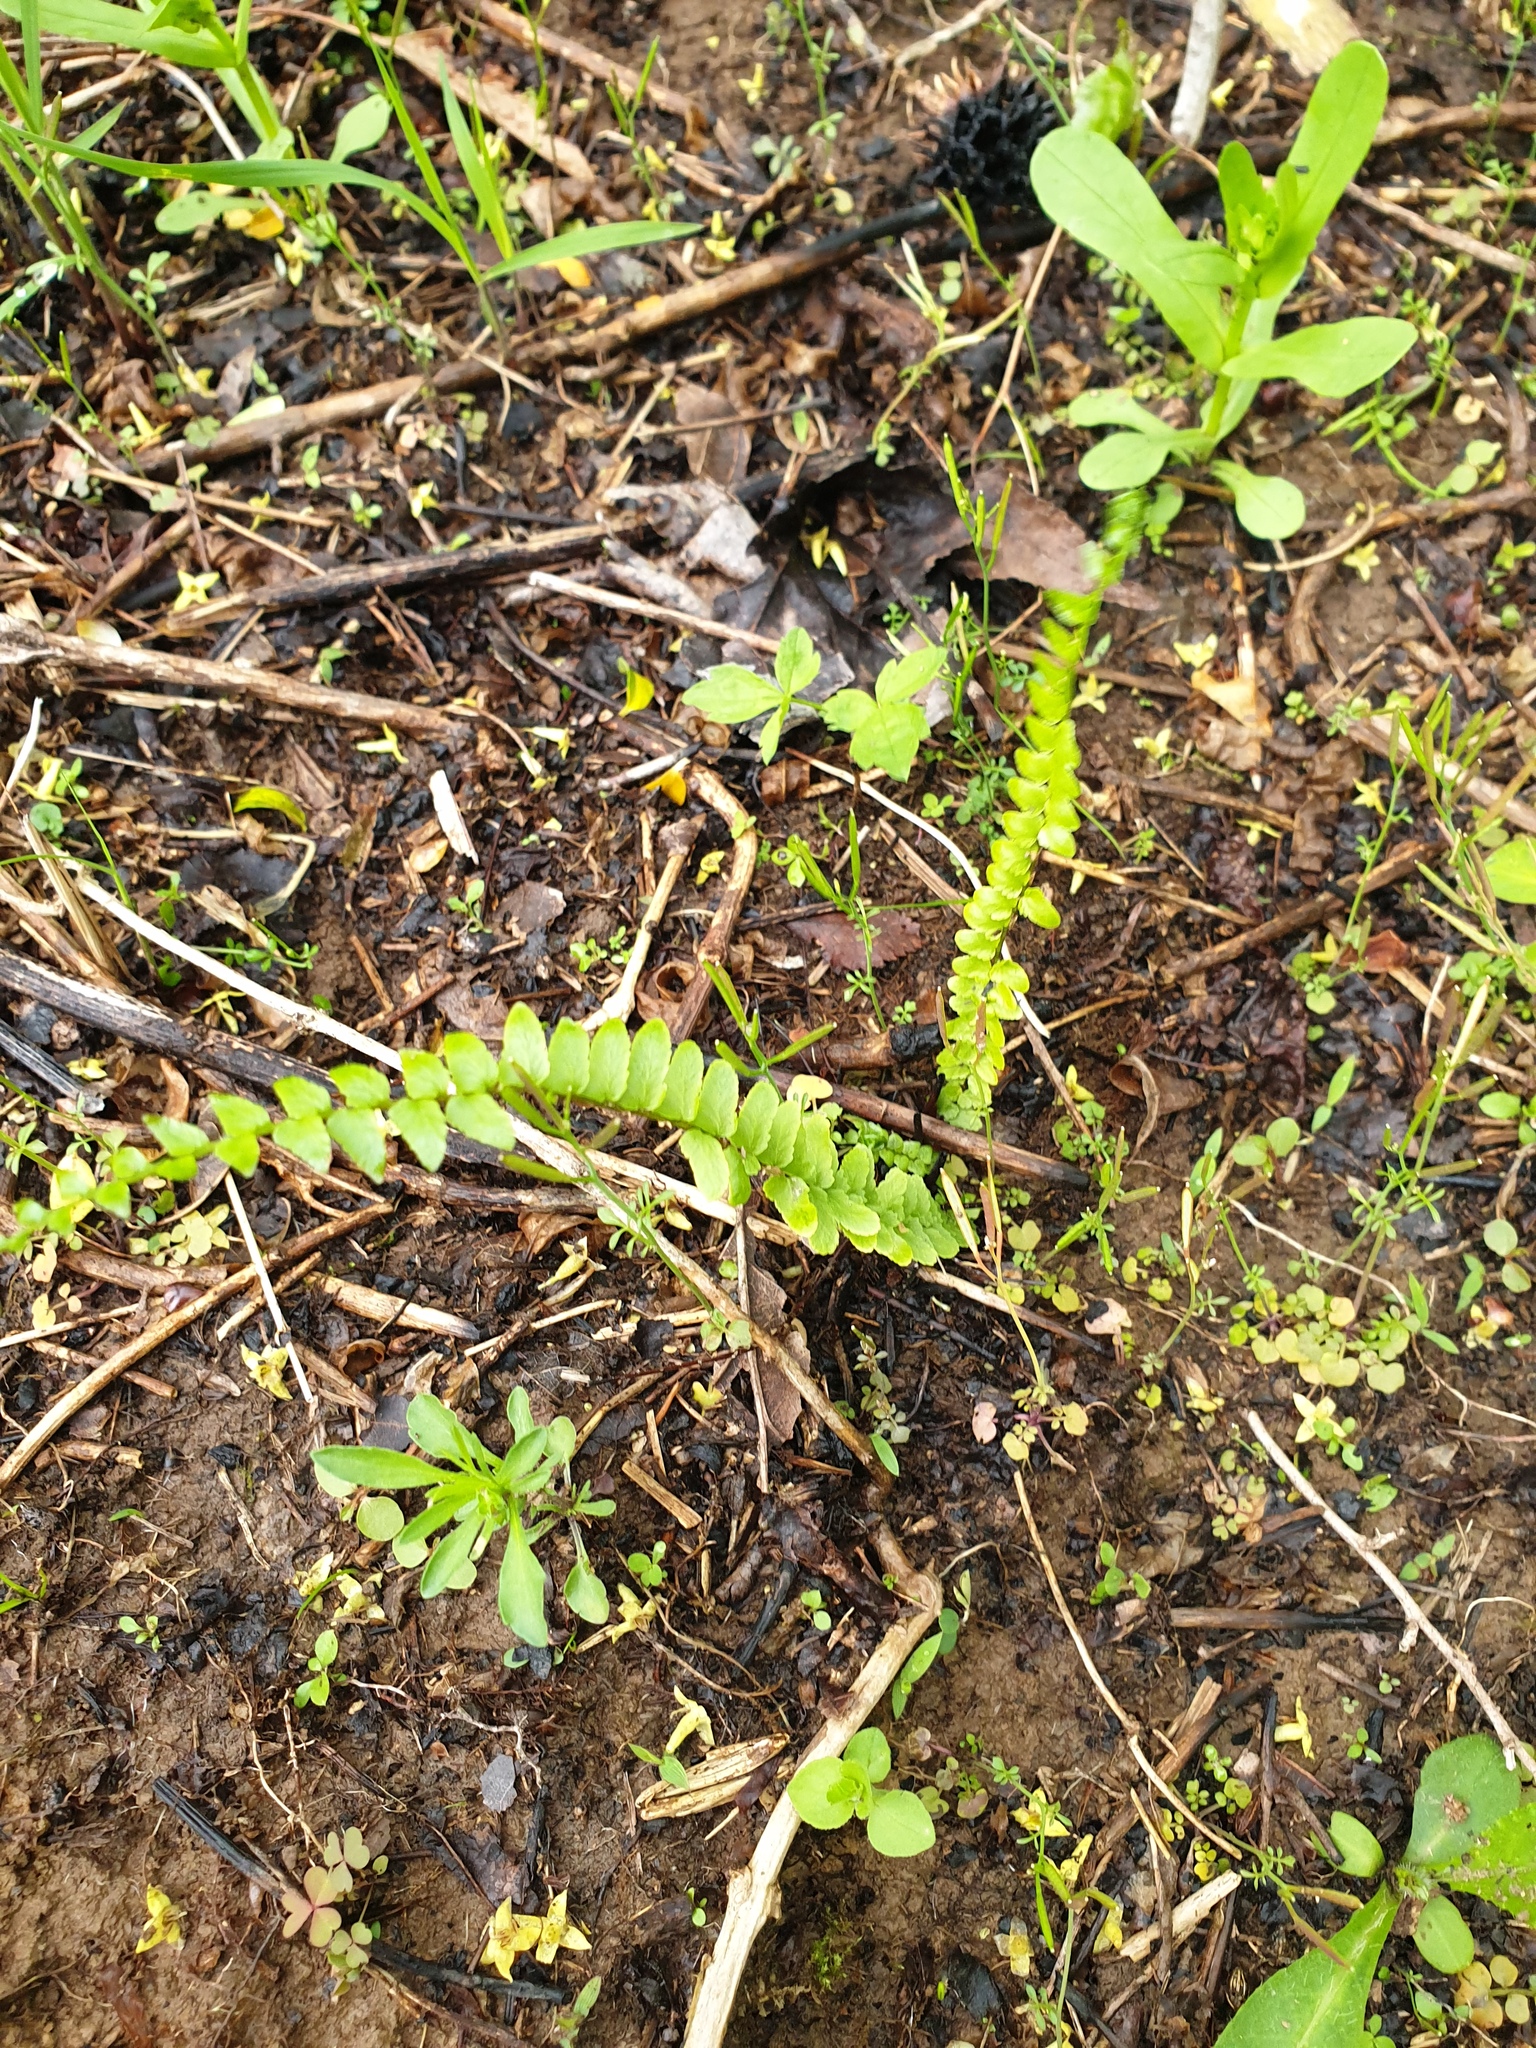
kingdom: Plantae
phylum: Tracheophyta
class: Polypodiopsida
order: Polypodiales
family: Aspleniaceae
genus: Asplenium
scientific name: Asplenium platyneuron
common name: Ebony spleenwort
